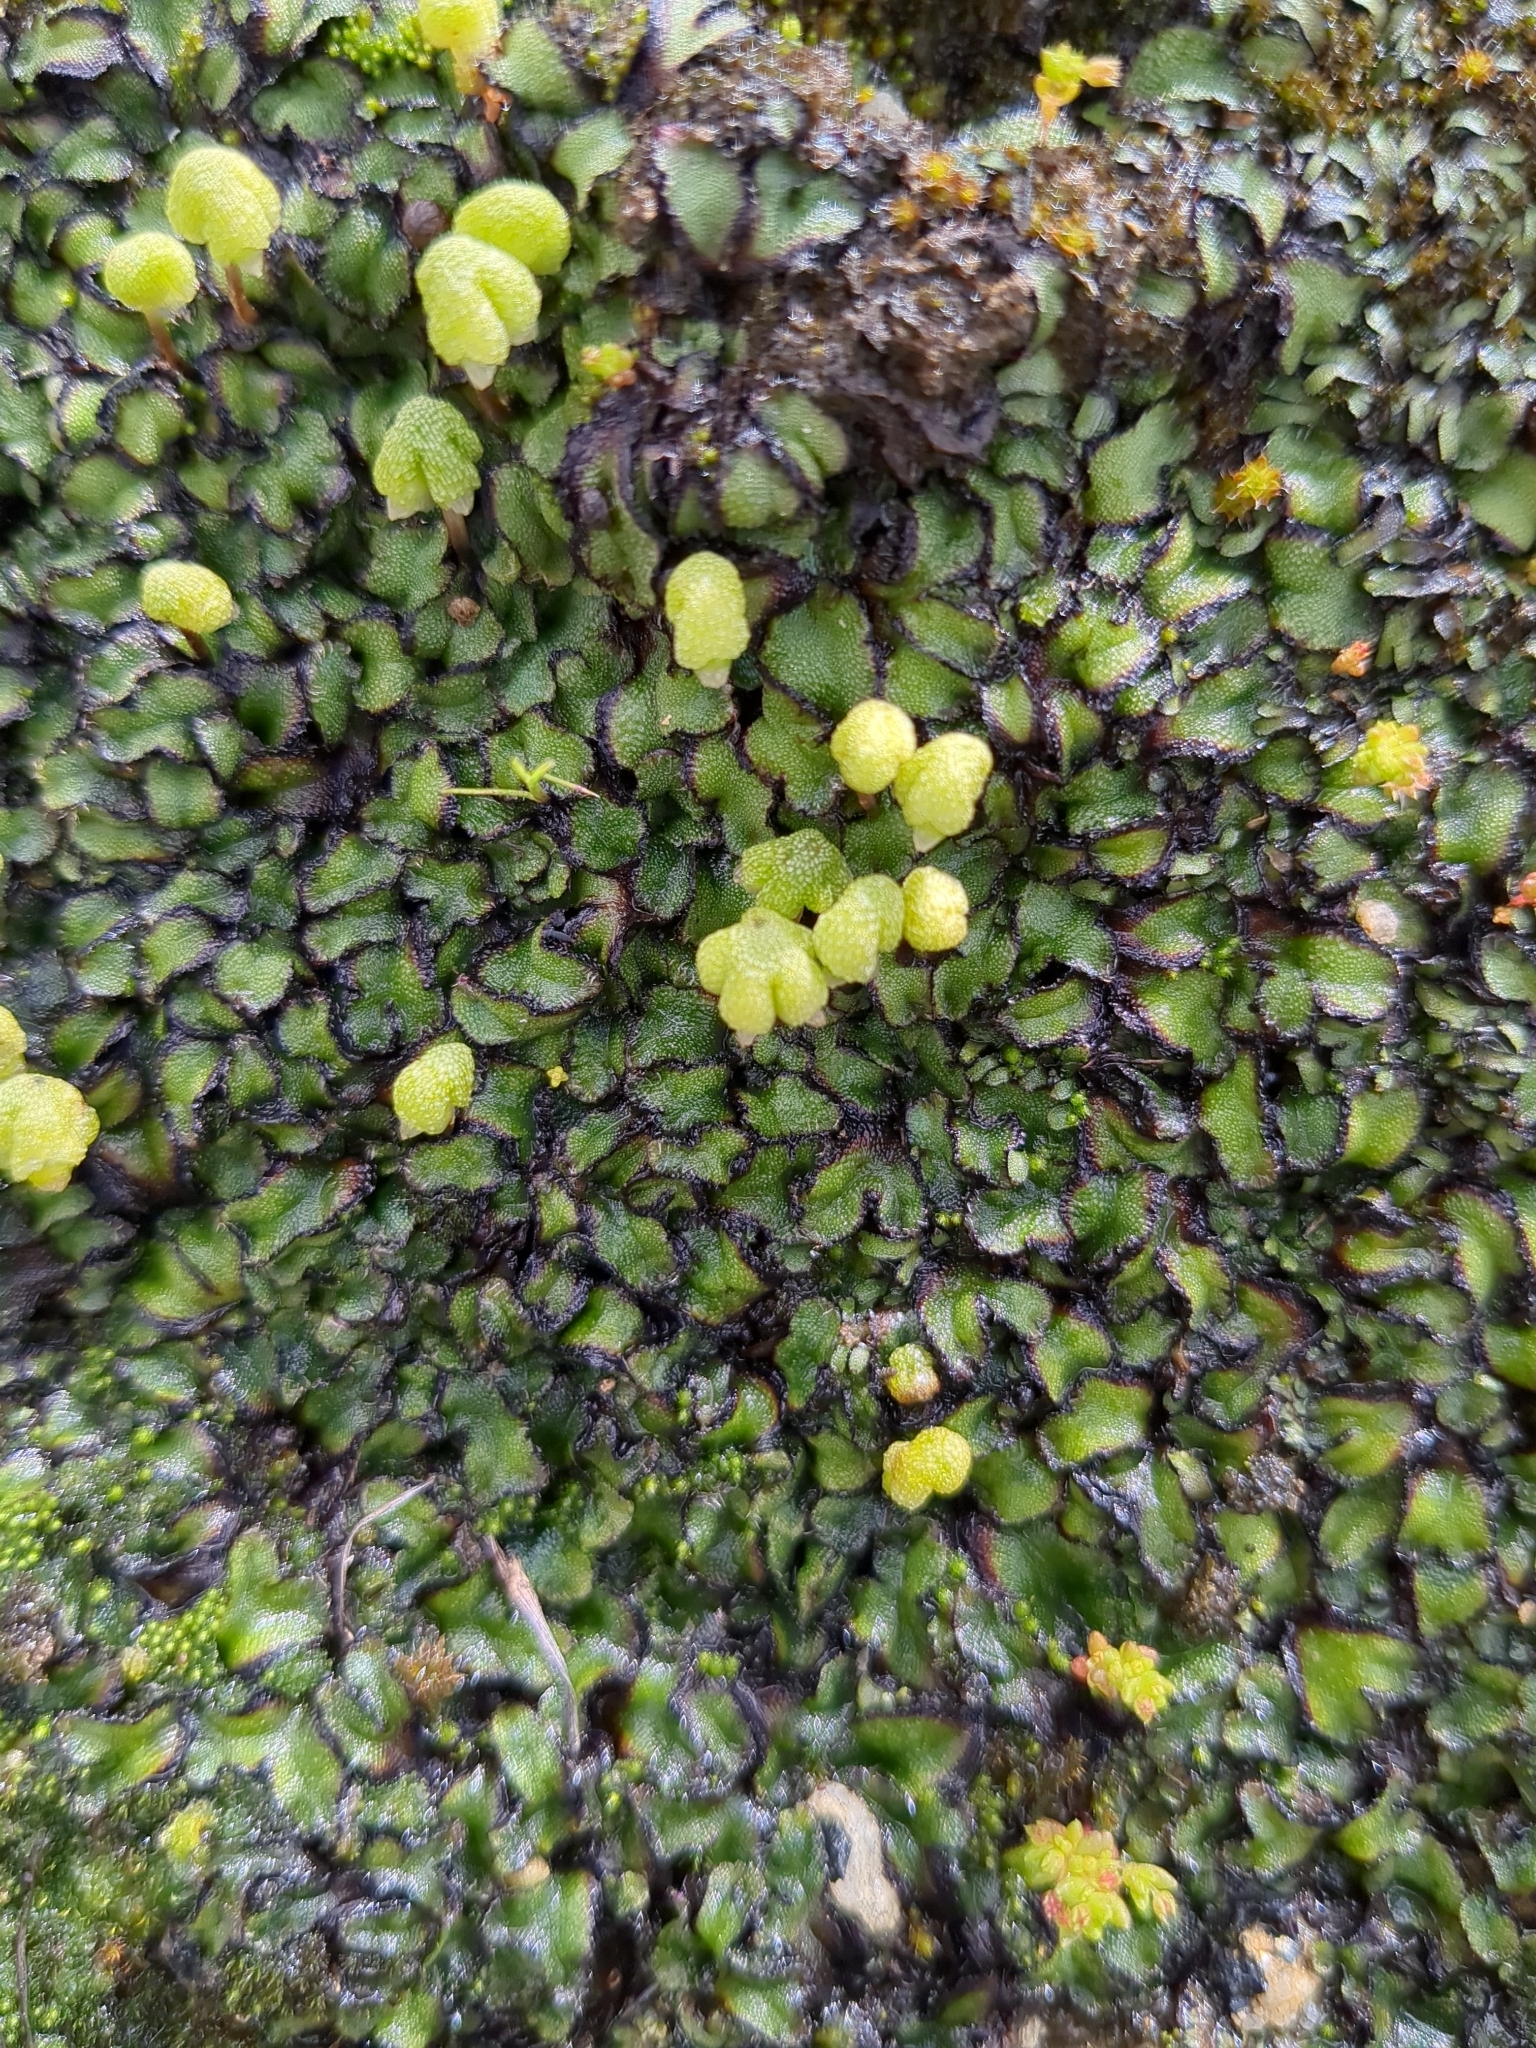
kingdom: Plantae
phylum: Marchantiophyta
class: Marchantiopsida
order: Marchantiales
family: Aytoniaceae
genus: Asterella
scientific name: Asterella californica
